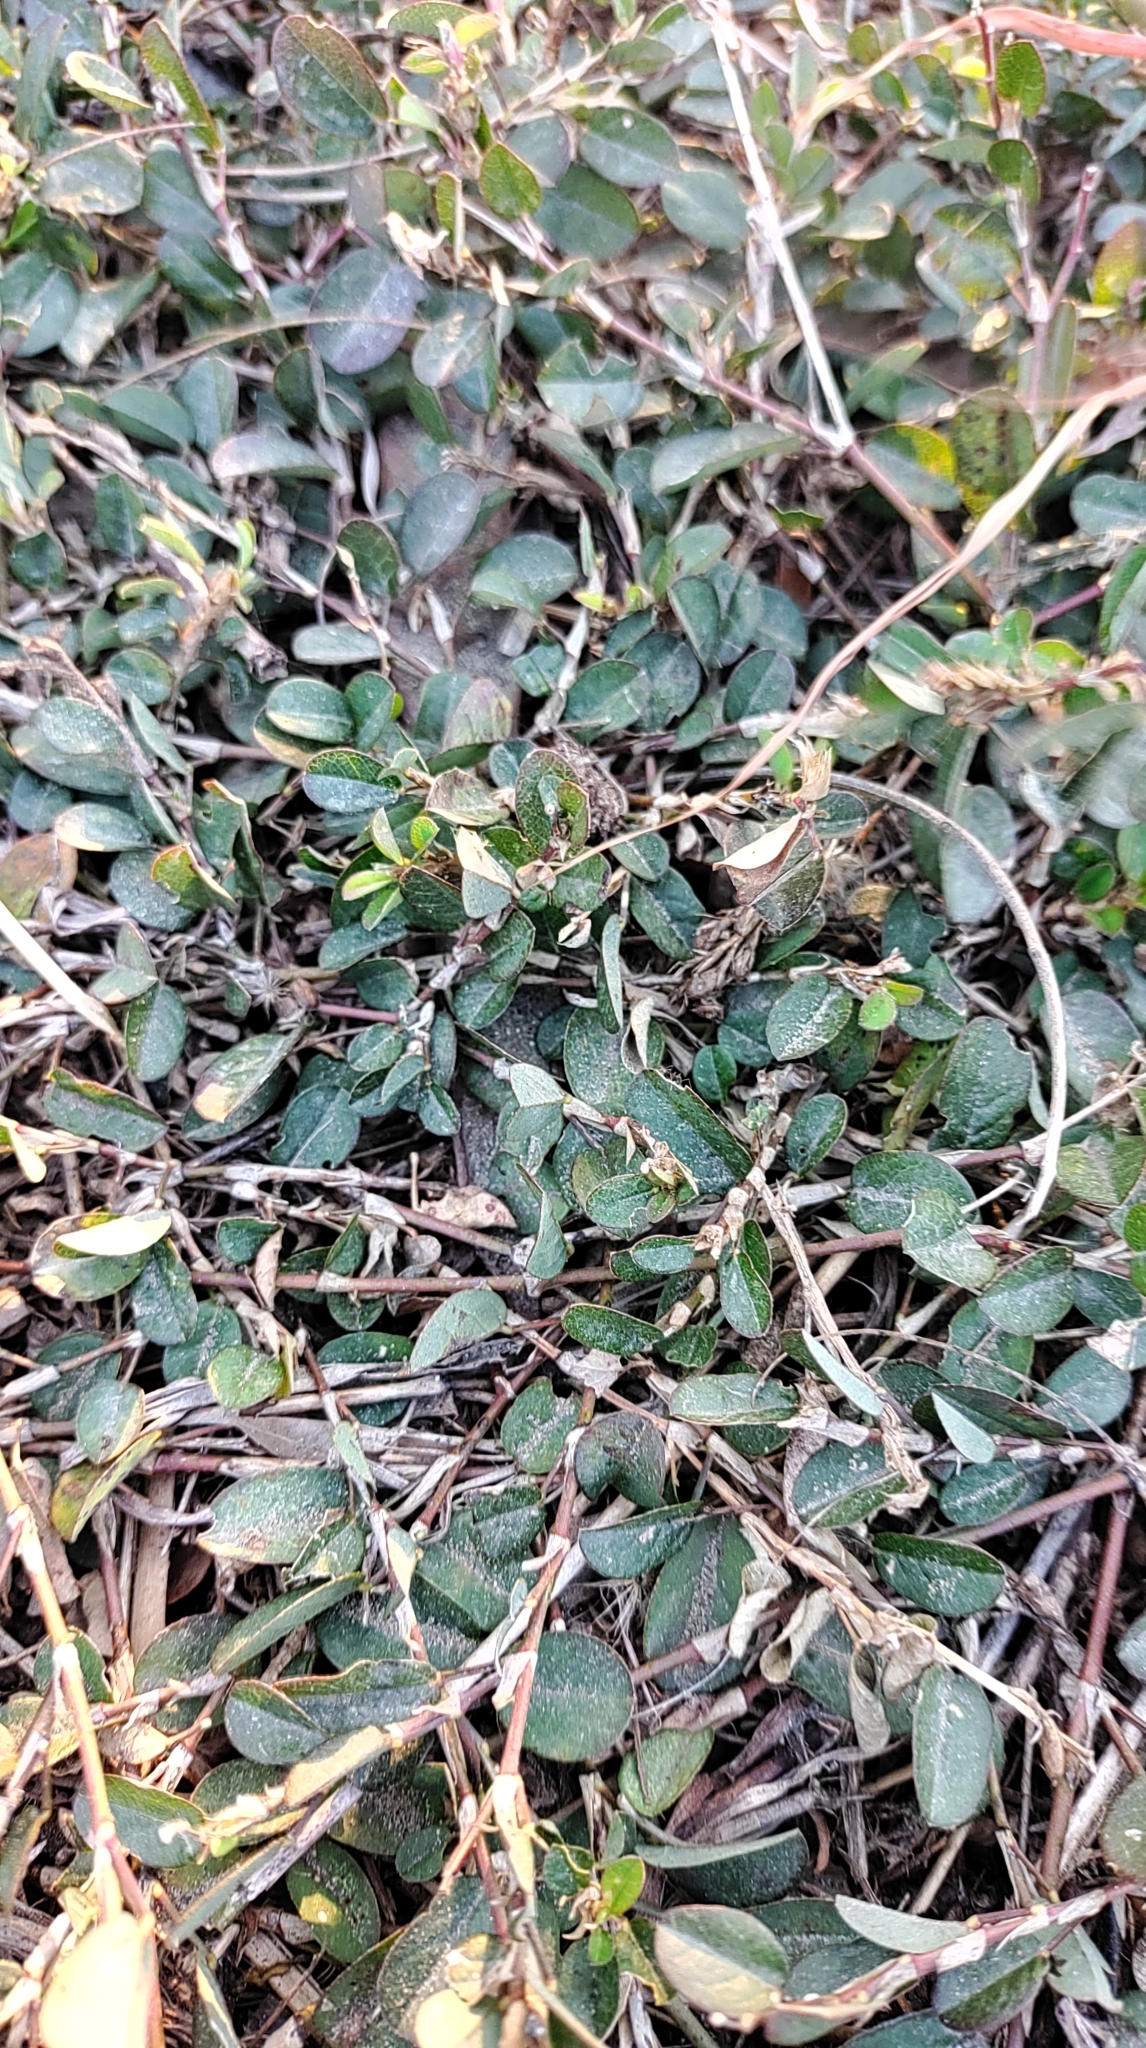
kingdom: Plantae
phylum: Tracheophyta
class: Magnoliopsida
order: Fabales
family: Fabaceae
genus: Alysicarpus
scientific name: Alysicarpus vaginalis
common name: White moneywort
